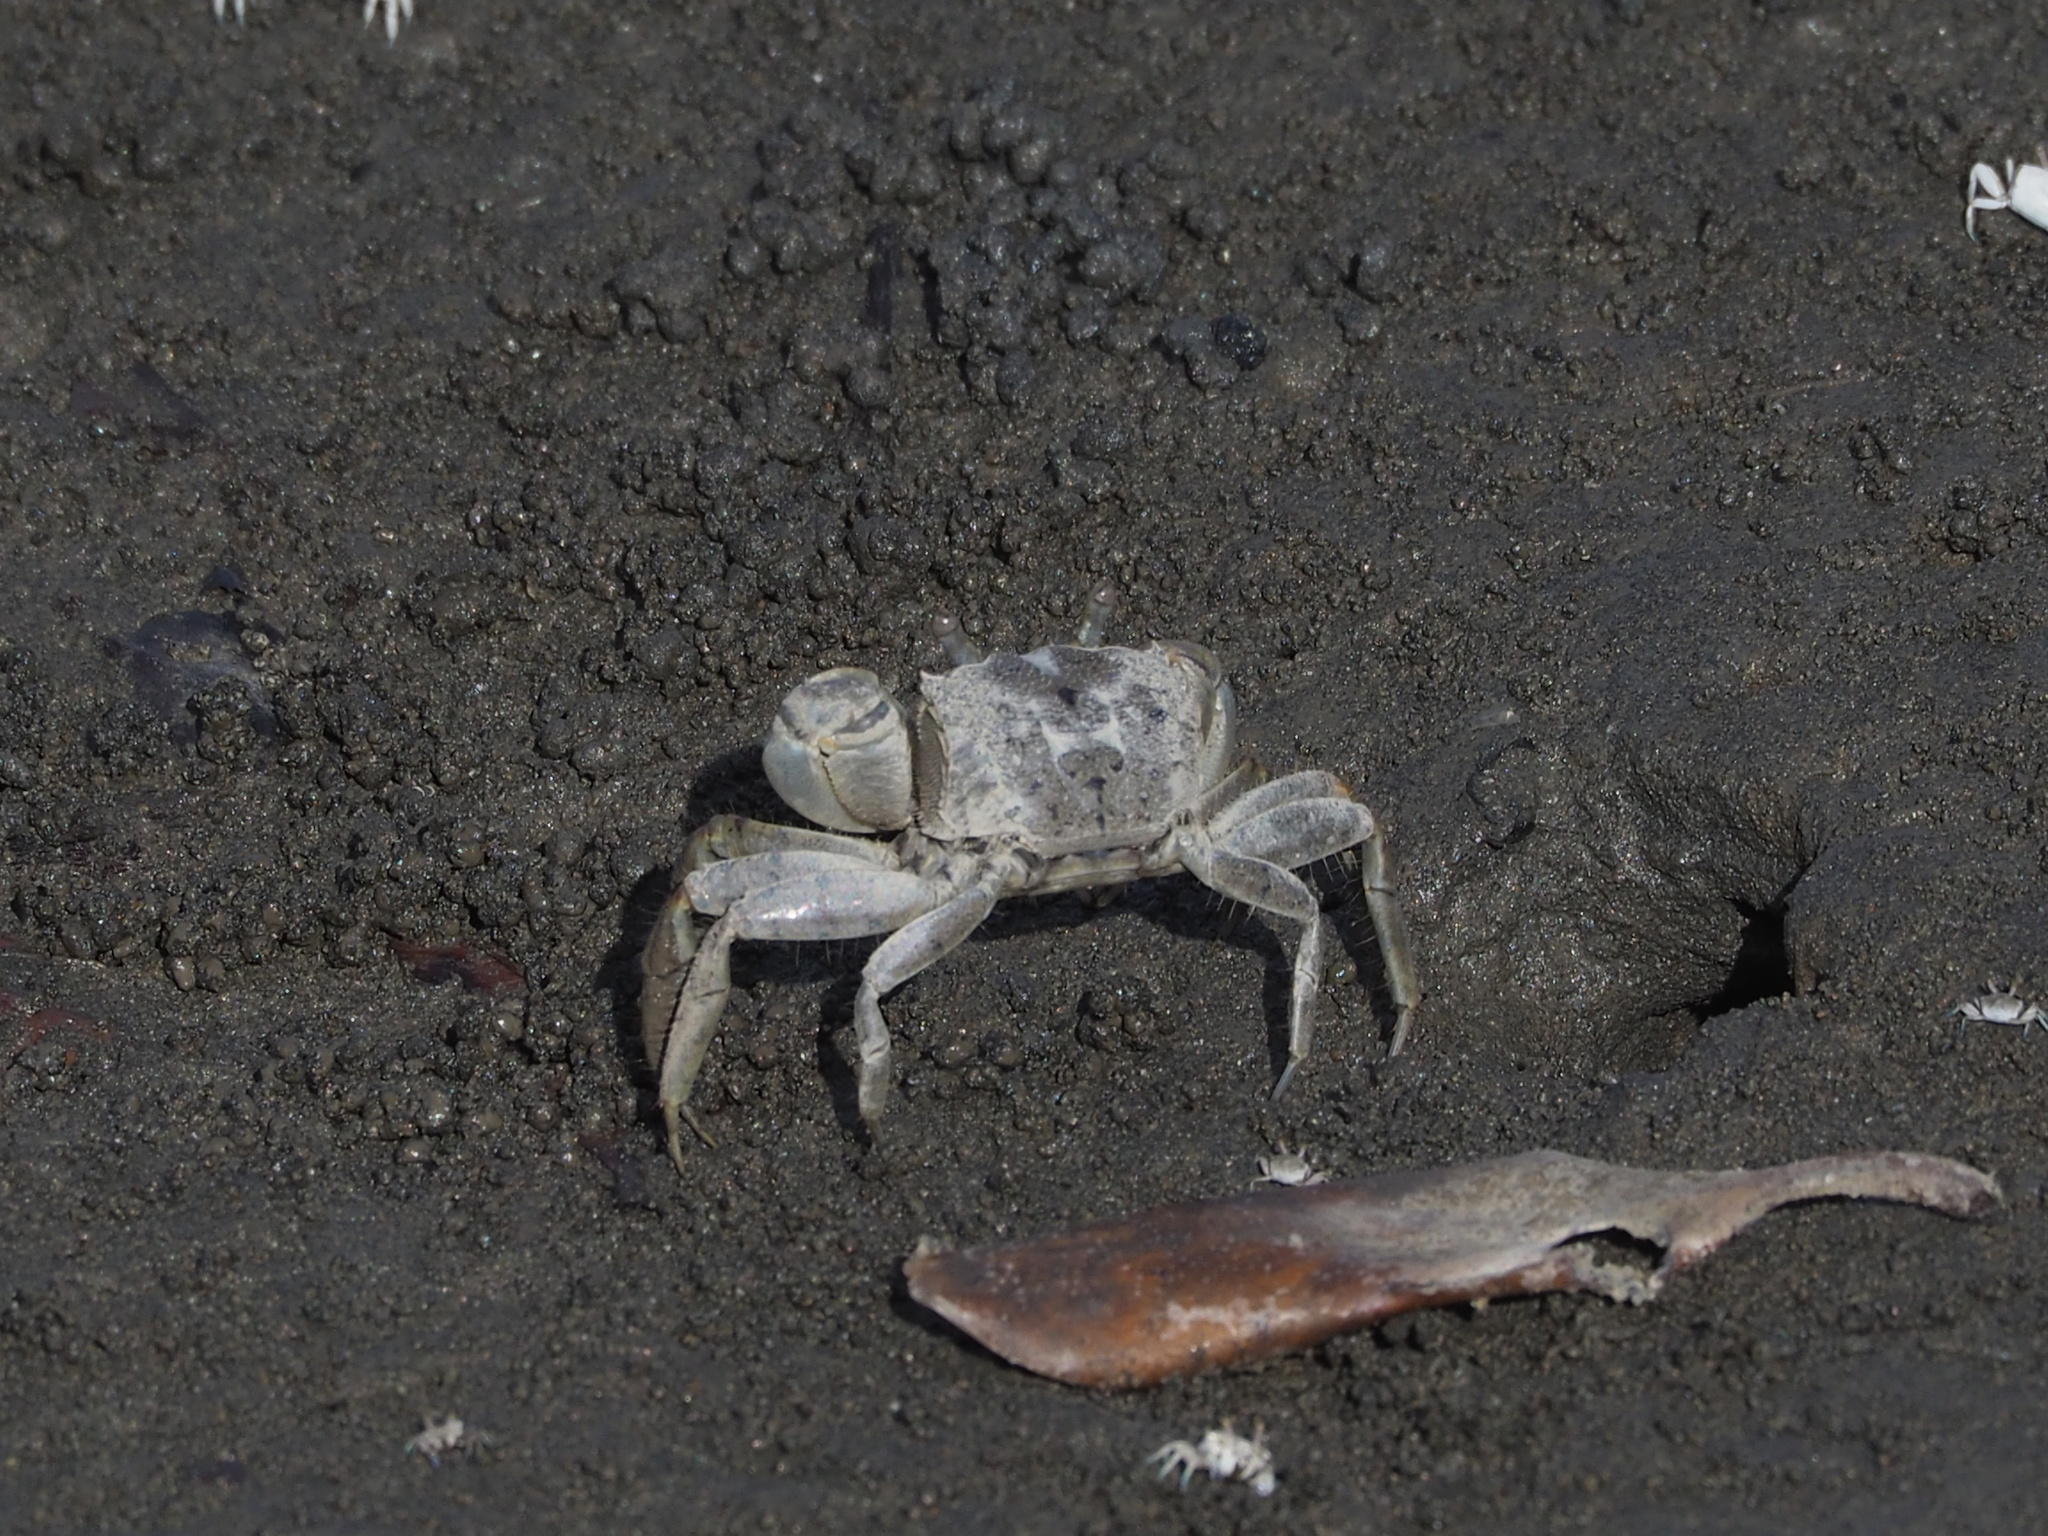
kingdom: Animalia
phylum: Arthropoda
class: Malacostraca
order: Decapoda
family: Varunidae
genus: Helicana
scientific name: Helicana doerjesi
